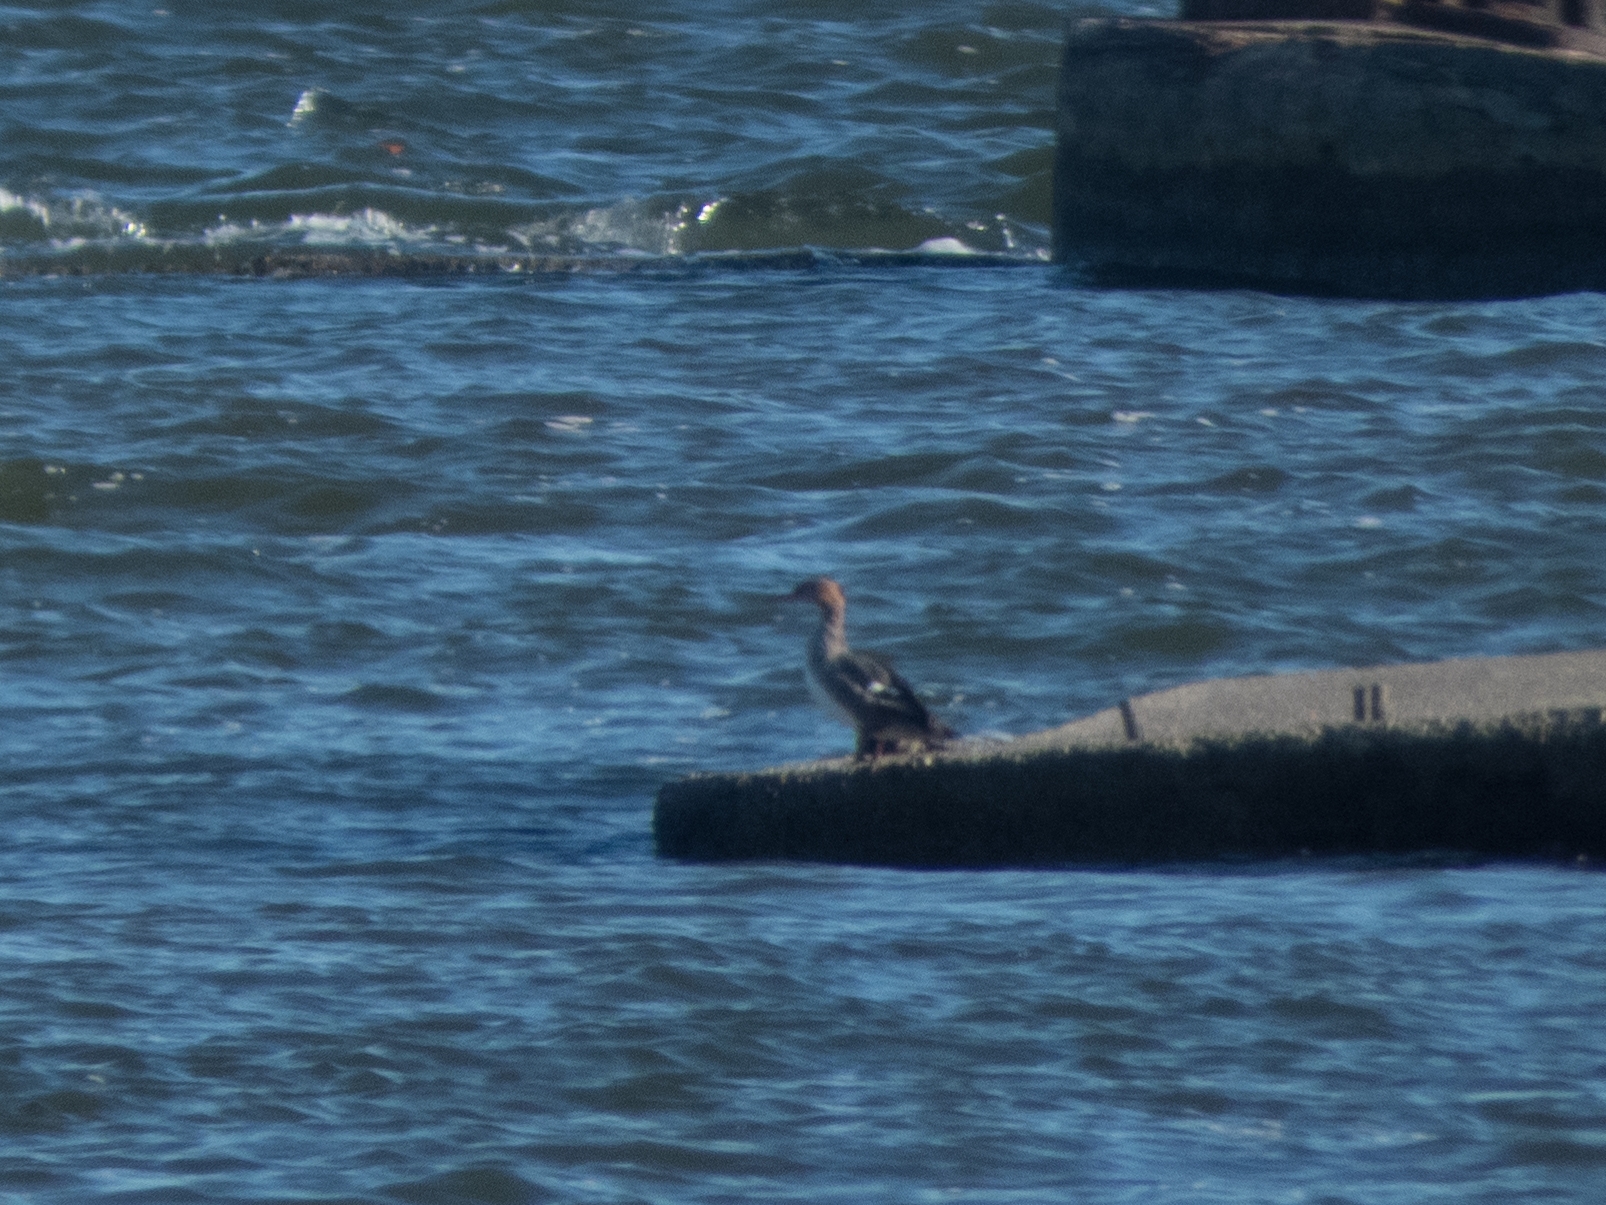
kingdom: Animalia
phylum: Chordata
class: Aves
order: Anseriformes
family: Anatidae
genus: Mergus
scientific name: Mergus serrator
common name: Red-breasted merganser
